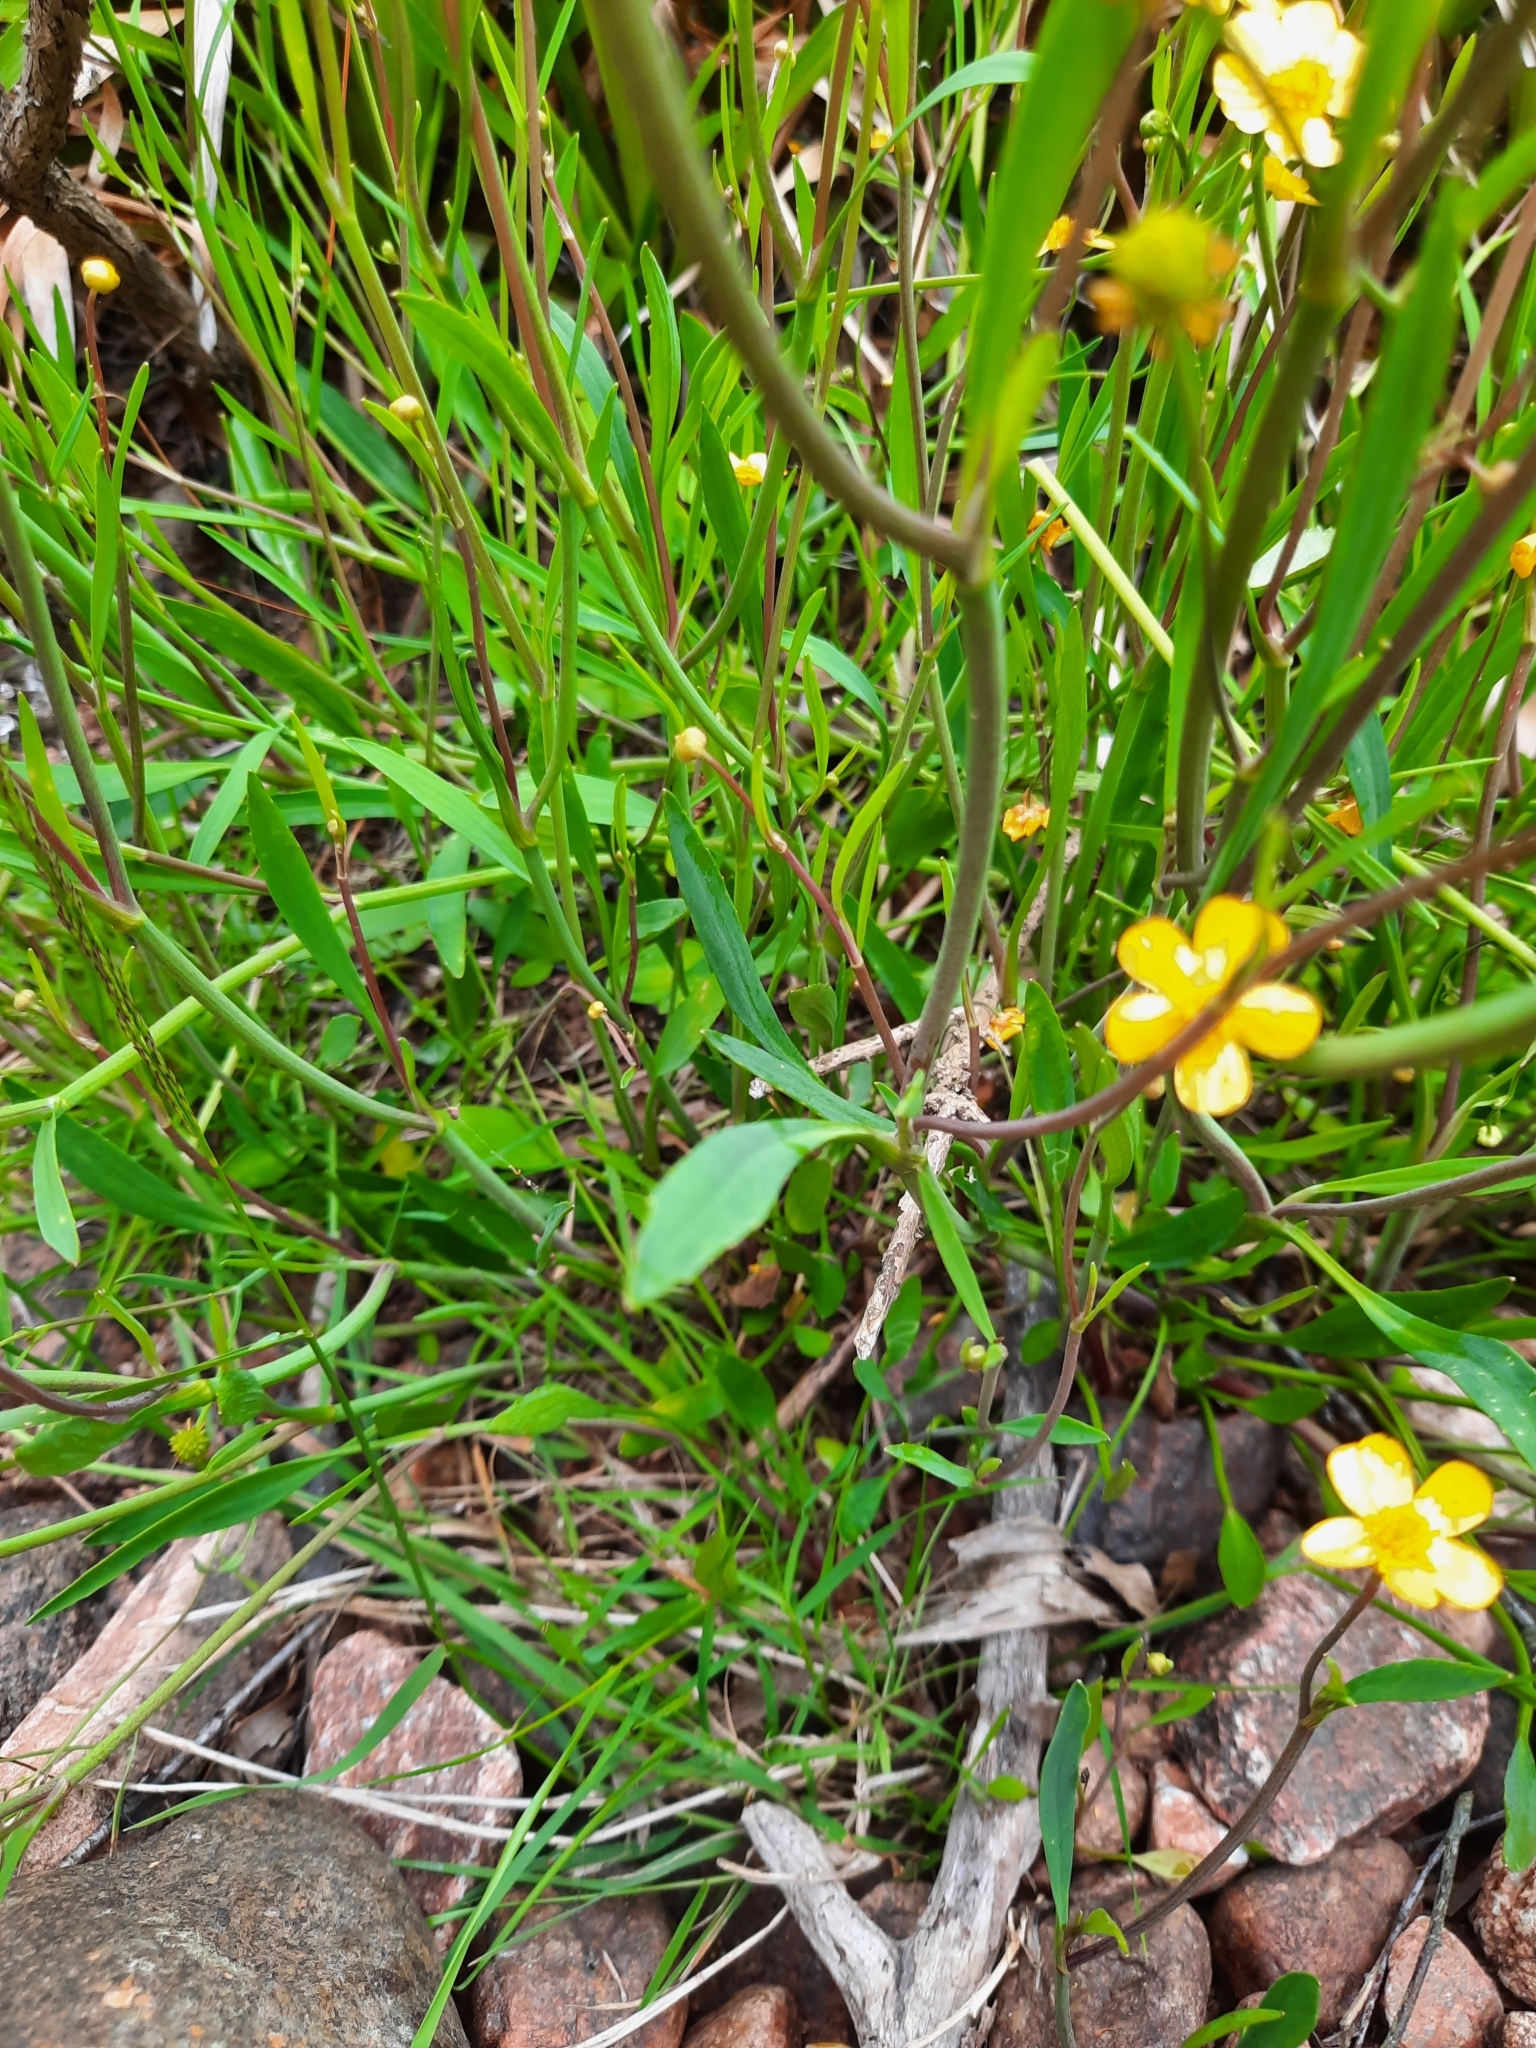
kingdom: Plantae
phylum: Tracheophyta
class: Magnoliopsida
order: Ranunculales
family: Ranunculaceae
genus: Ranunculus
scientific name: Ranunculus flammula
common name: Lesser spearwort
